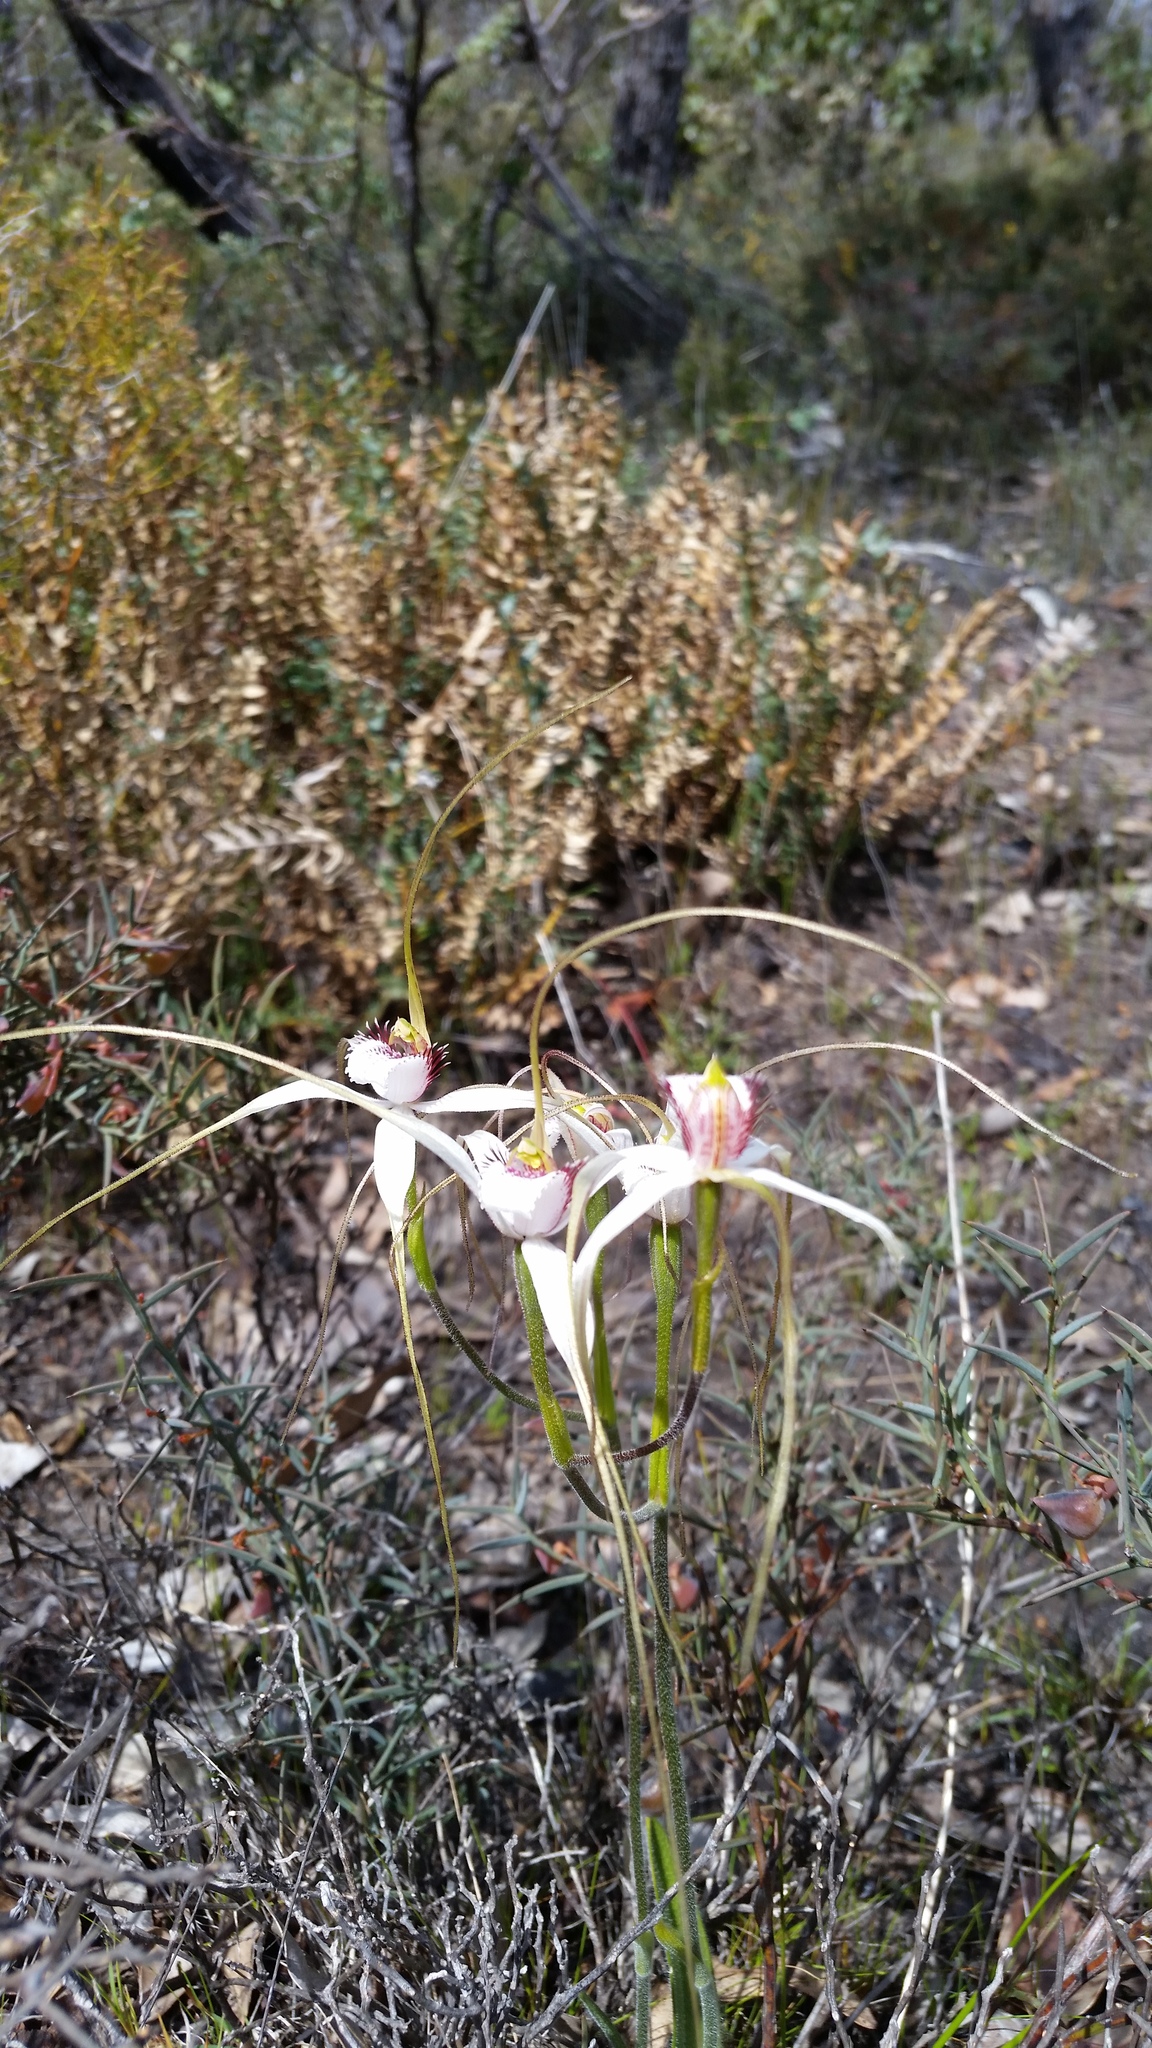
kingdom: Plantae
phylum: Tracheophyta
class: Liliopsida
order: Asparagales
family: Orchidaceae
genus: Caladenia
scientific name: Caladenia longicauda
